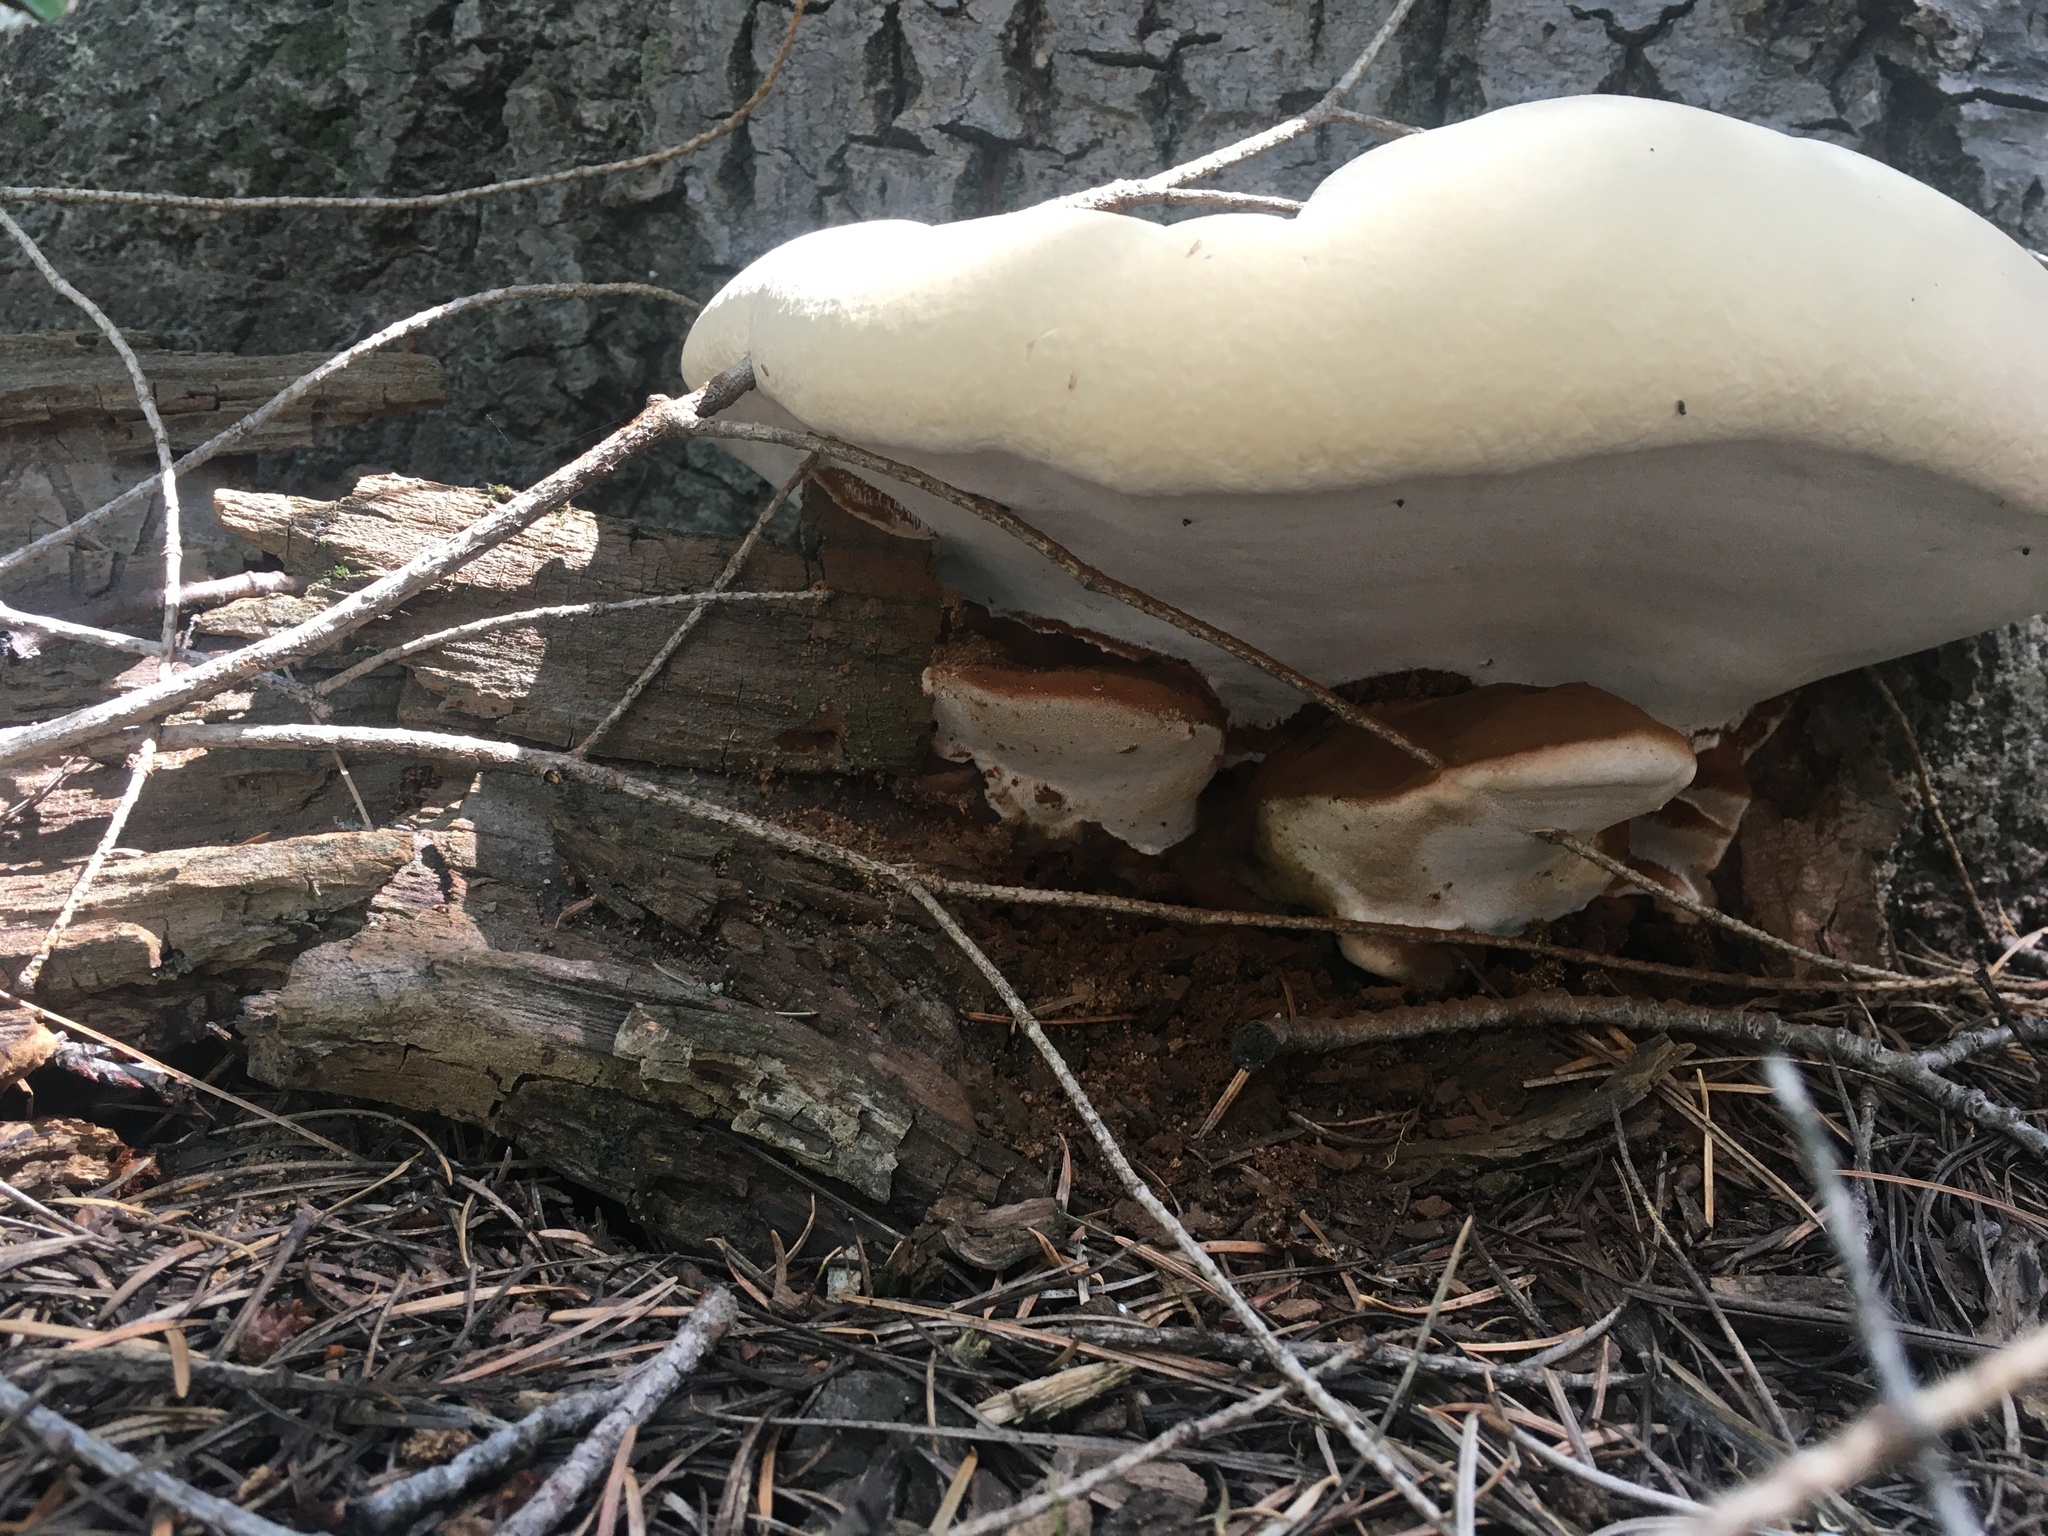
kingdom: Fungi
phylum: Basidiomycota
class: Agaricomycetes
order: Polyporales
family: Polyporaceae
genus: Ganoderma
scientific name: Ganoderma applanatum
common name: Artist's bracket
